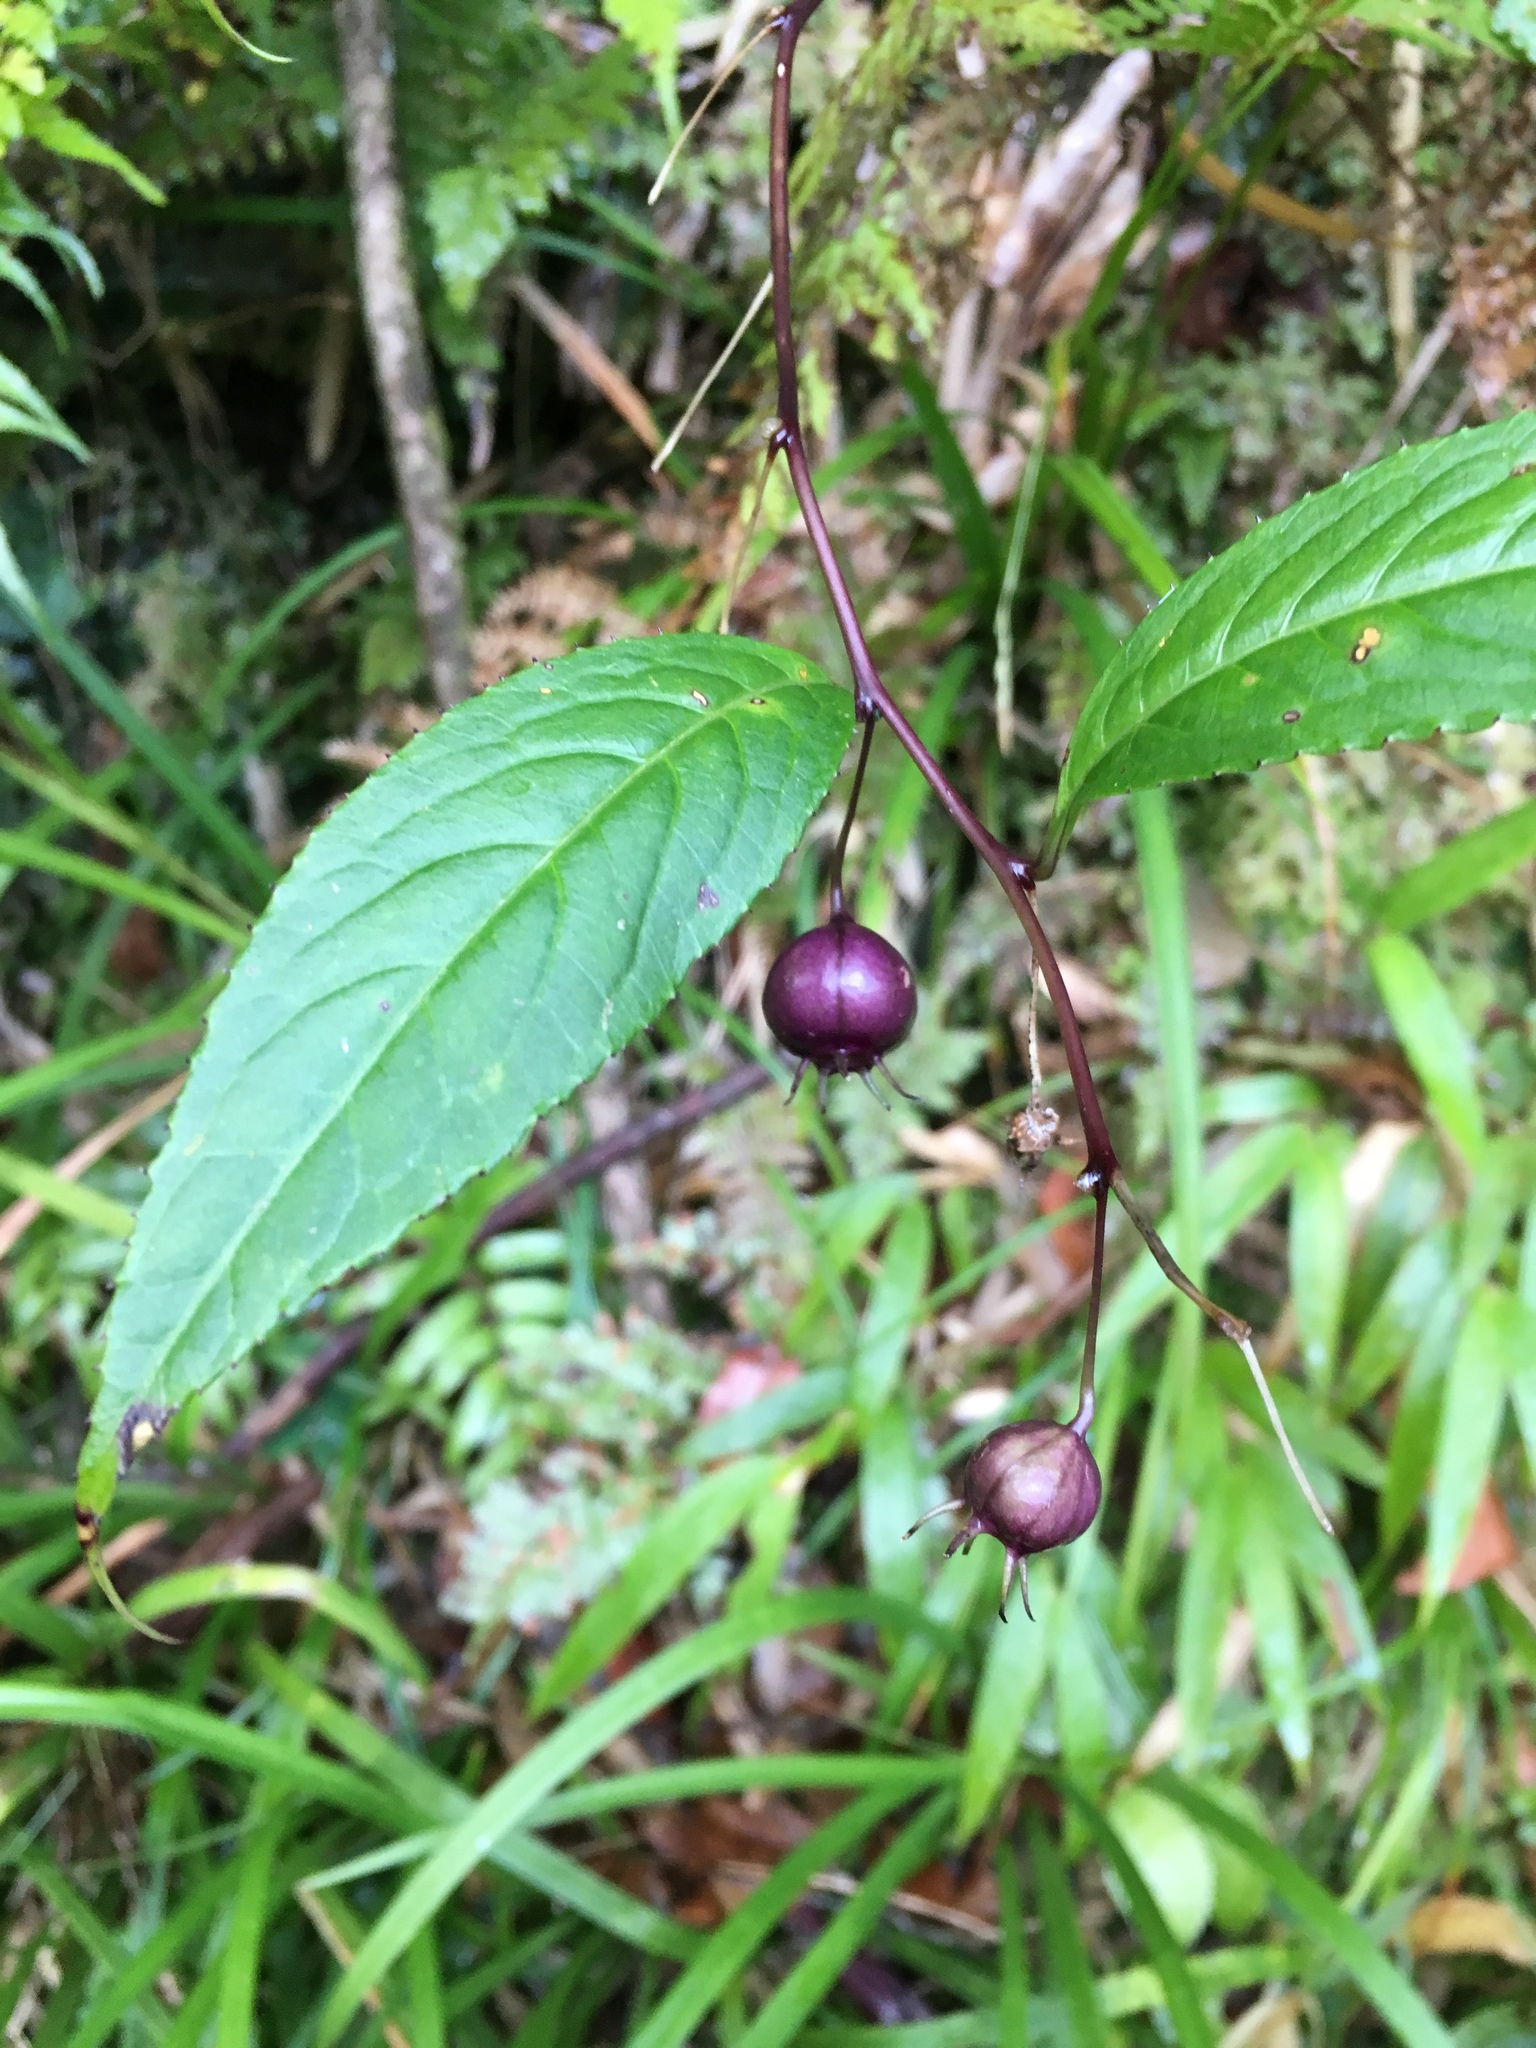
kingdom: Plantae
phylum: Tracheophyta
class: Magnoliopsida
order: Asterales
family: Campanulaceae
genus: Lobelia
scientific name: Lobelia montana
